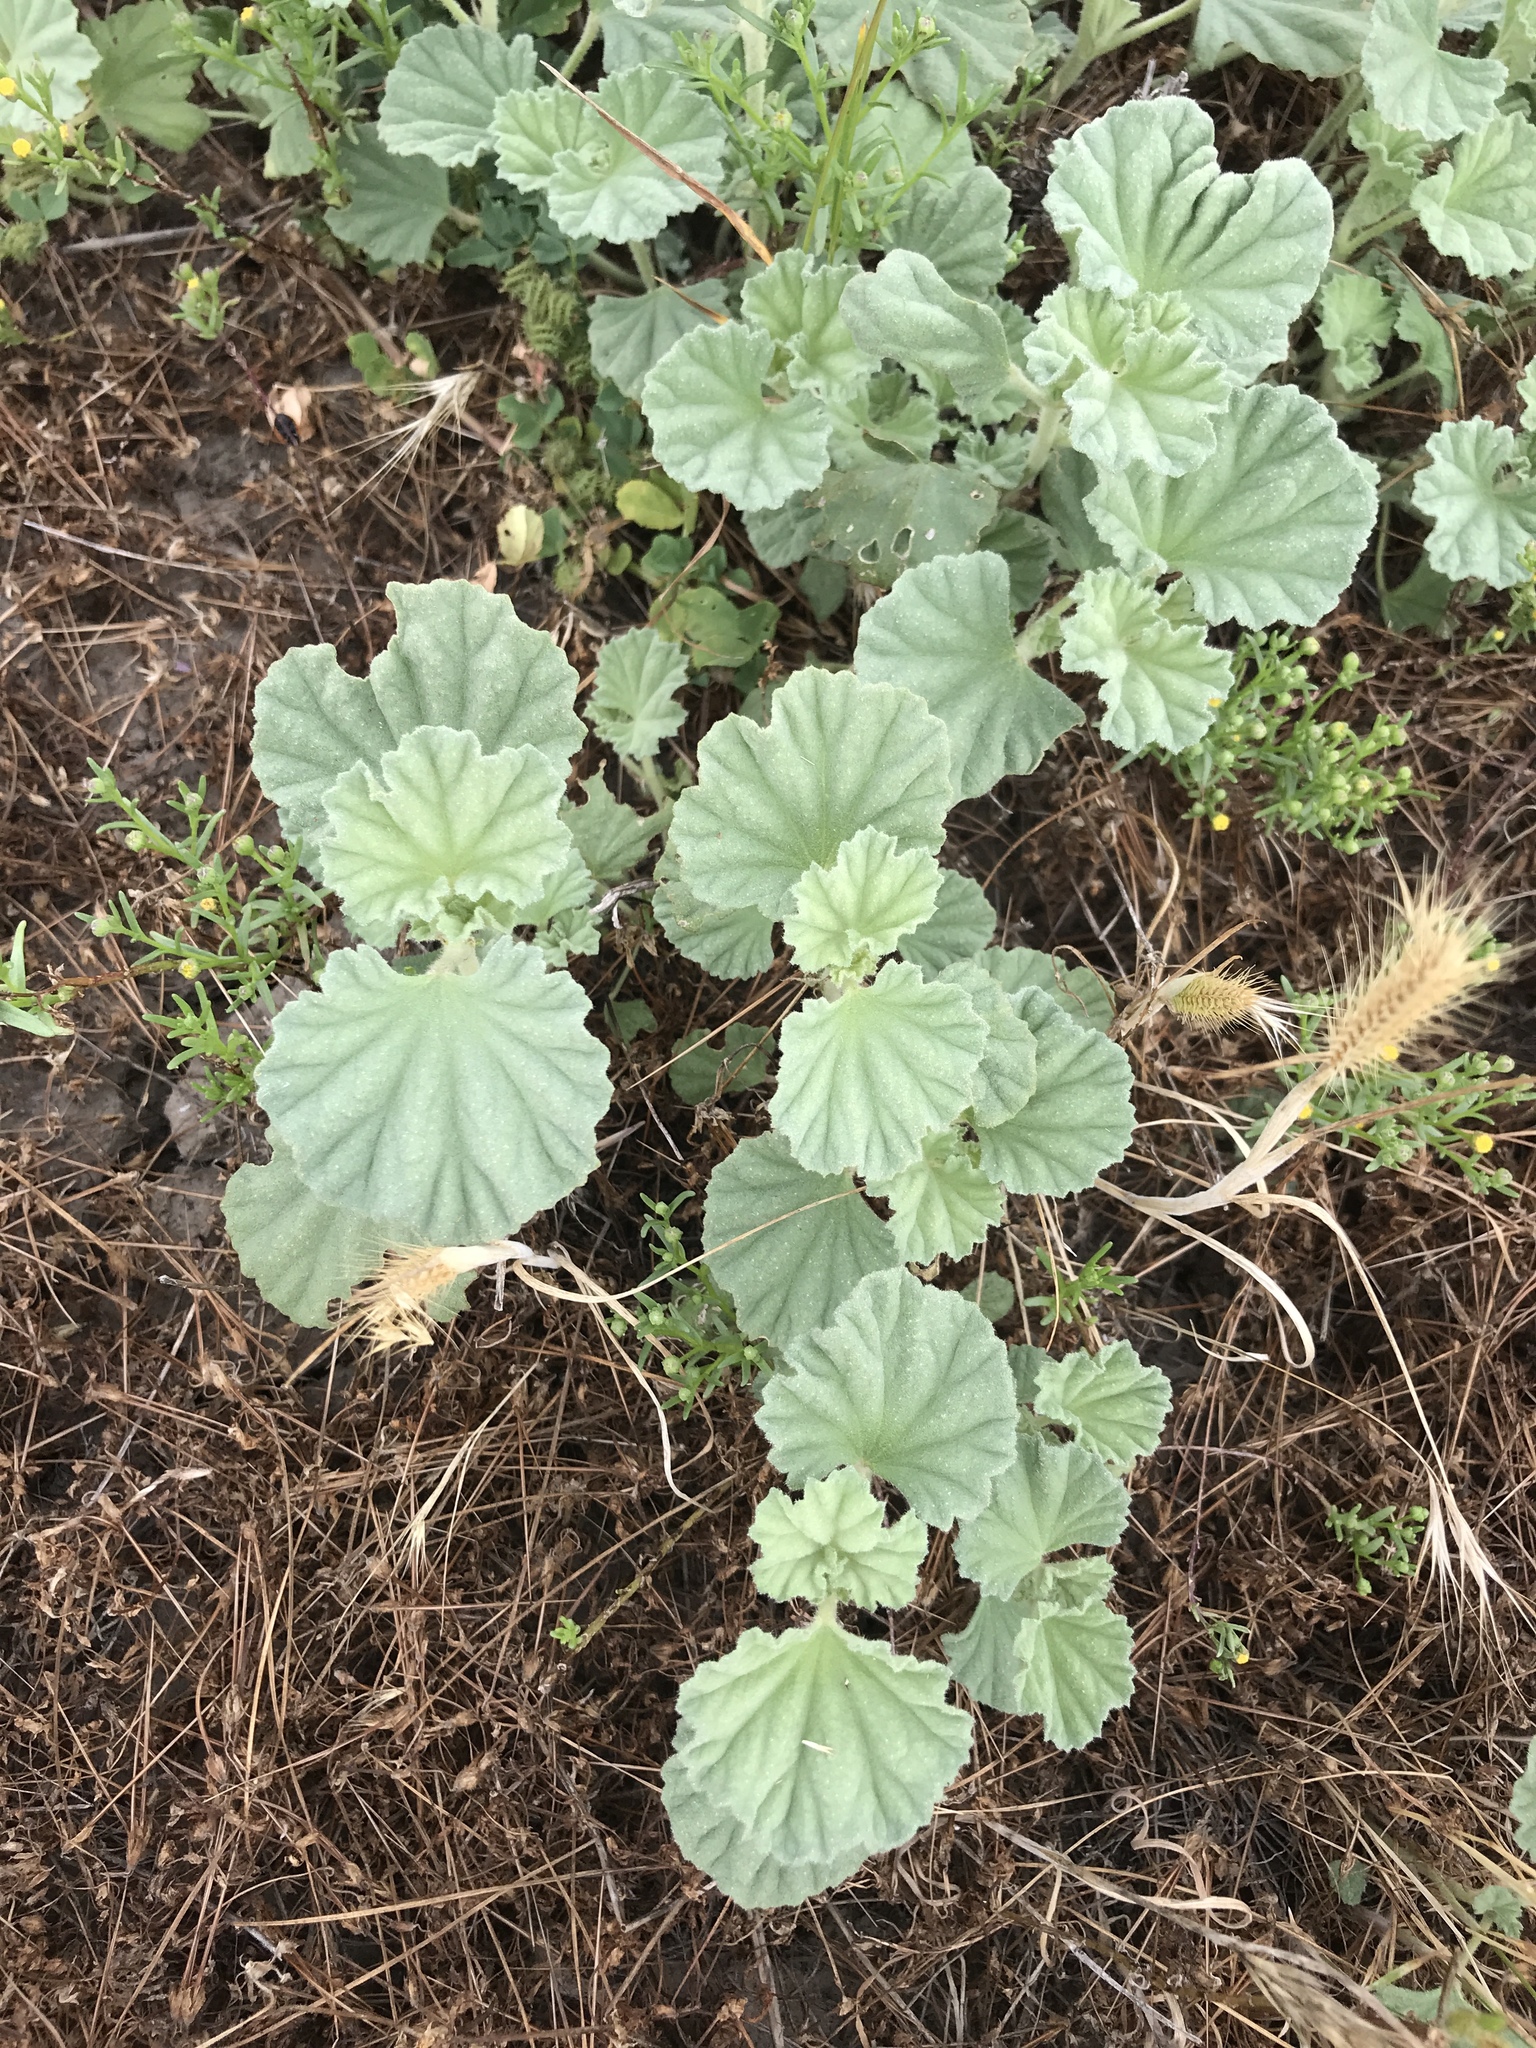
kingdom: Plantae
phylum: Tracheophyta
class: Magnoliopsida
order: Malvales
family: Malvaceae
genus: Malvella
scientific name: Malvella leprosa
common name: Alkali-mallow
